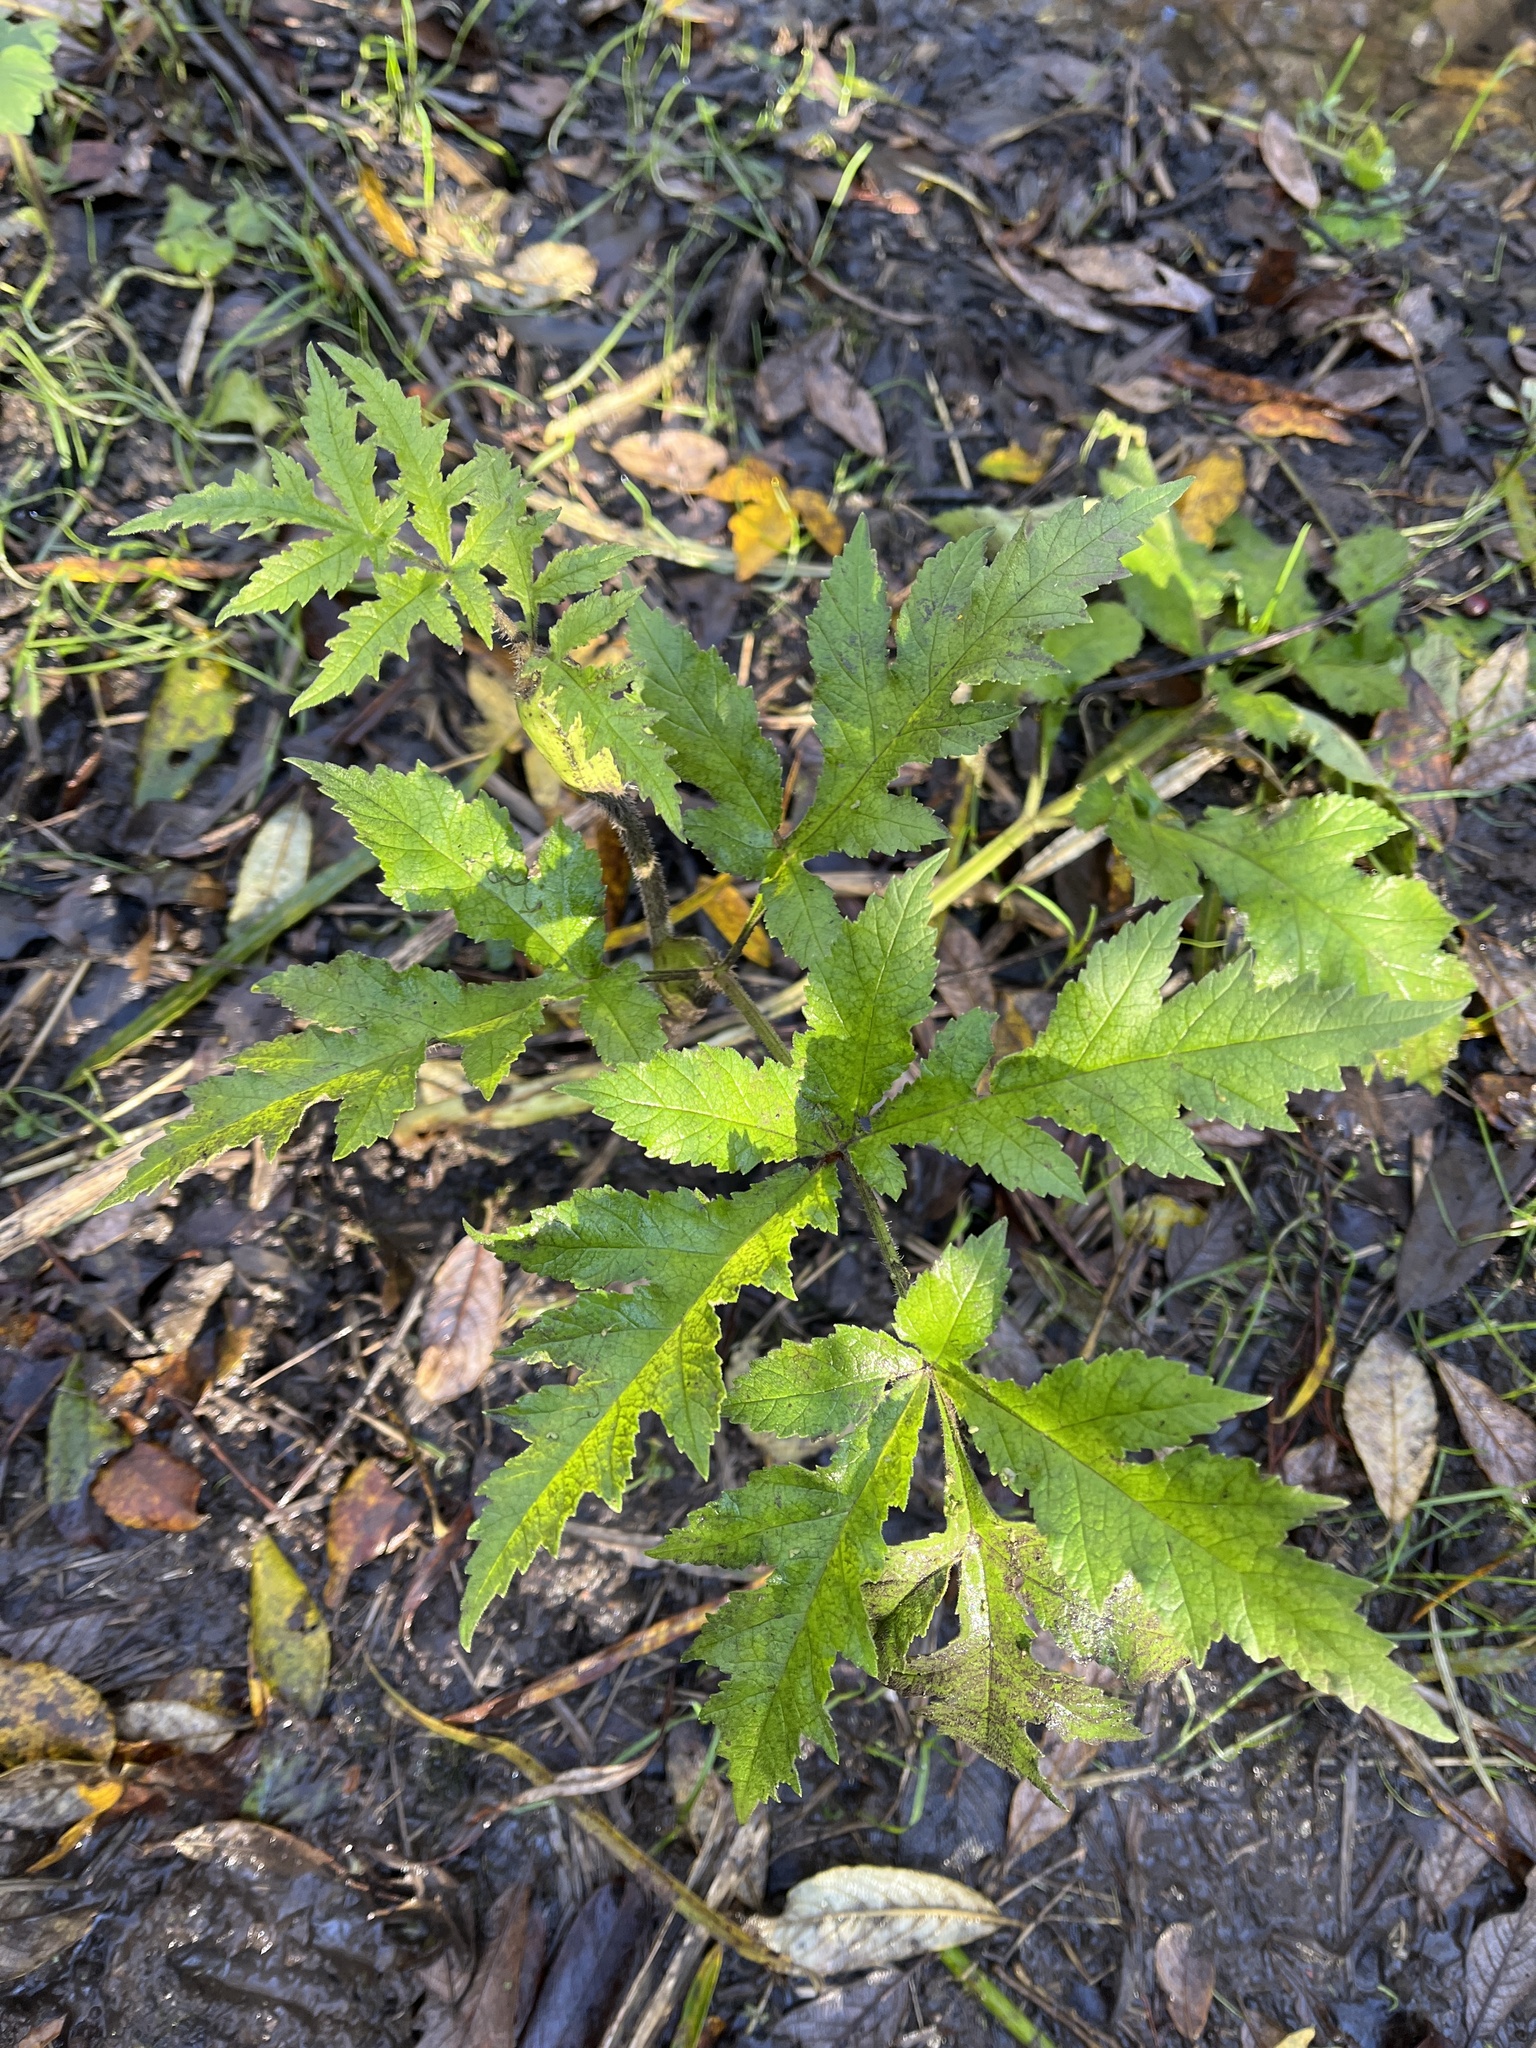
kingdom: Plantae
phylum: Tracheophyta
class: Magnoliopsida
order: Apiales
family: Apiaceae
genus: Heracleum
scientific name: Heracleum mantegazzianum
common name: Giant hogweed
